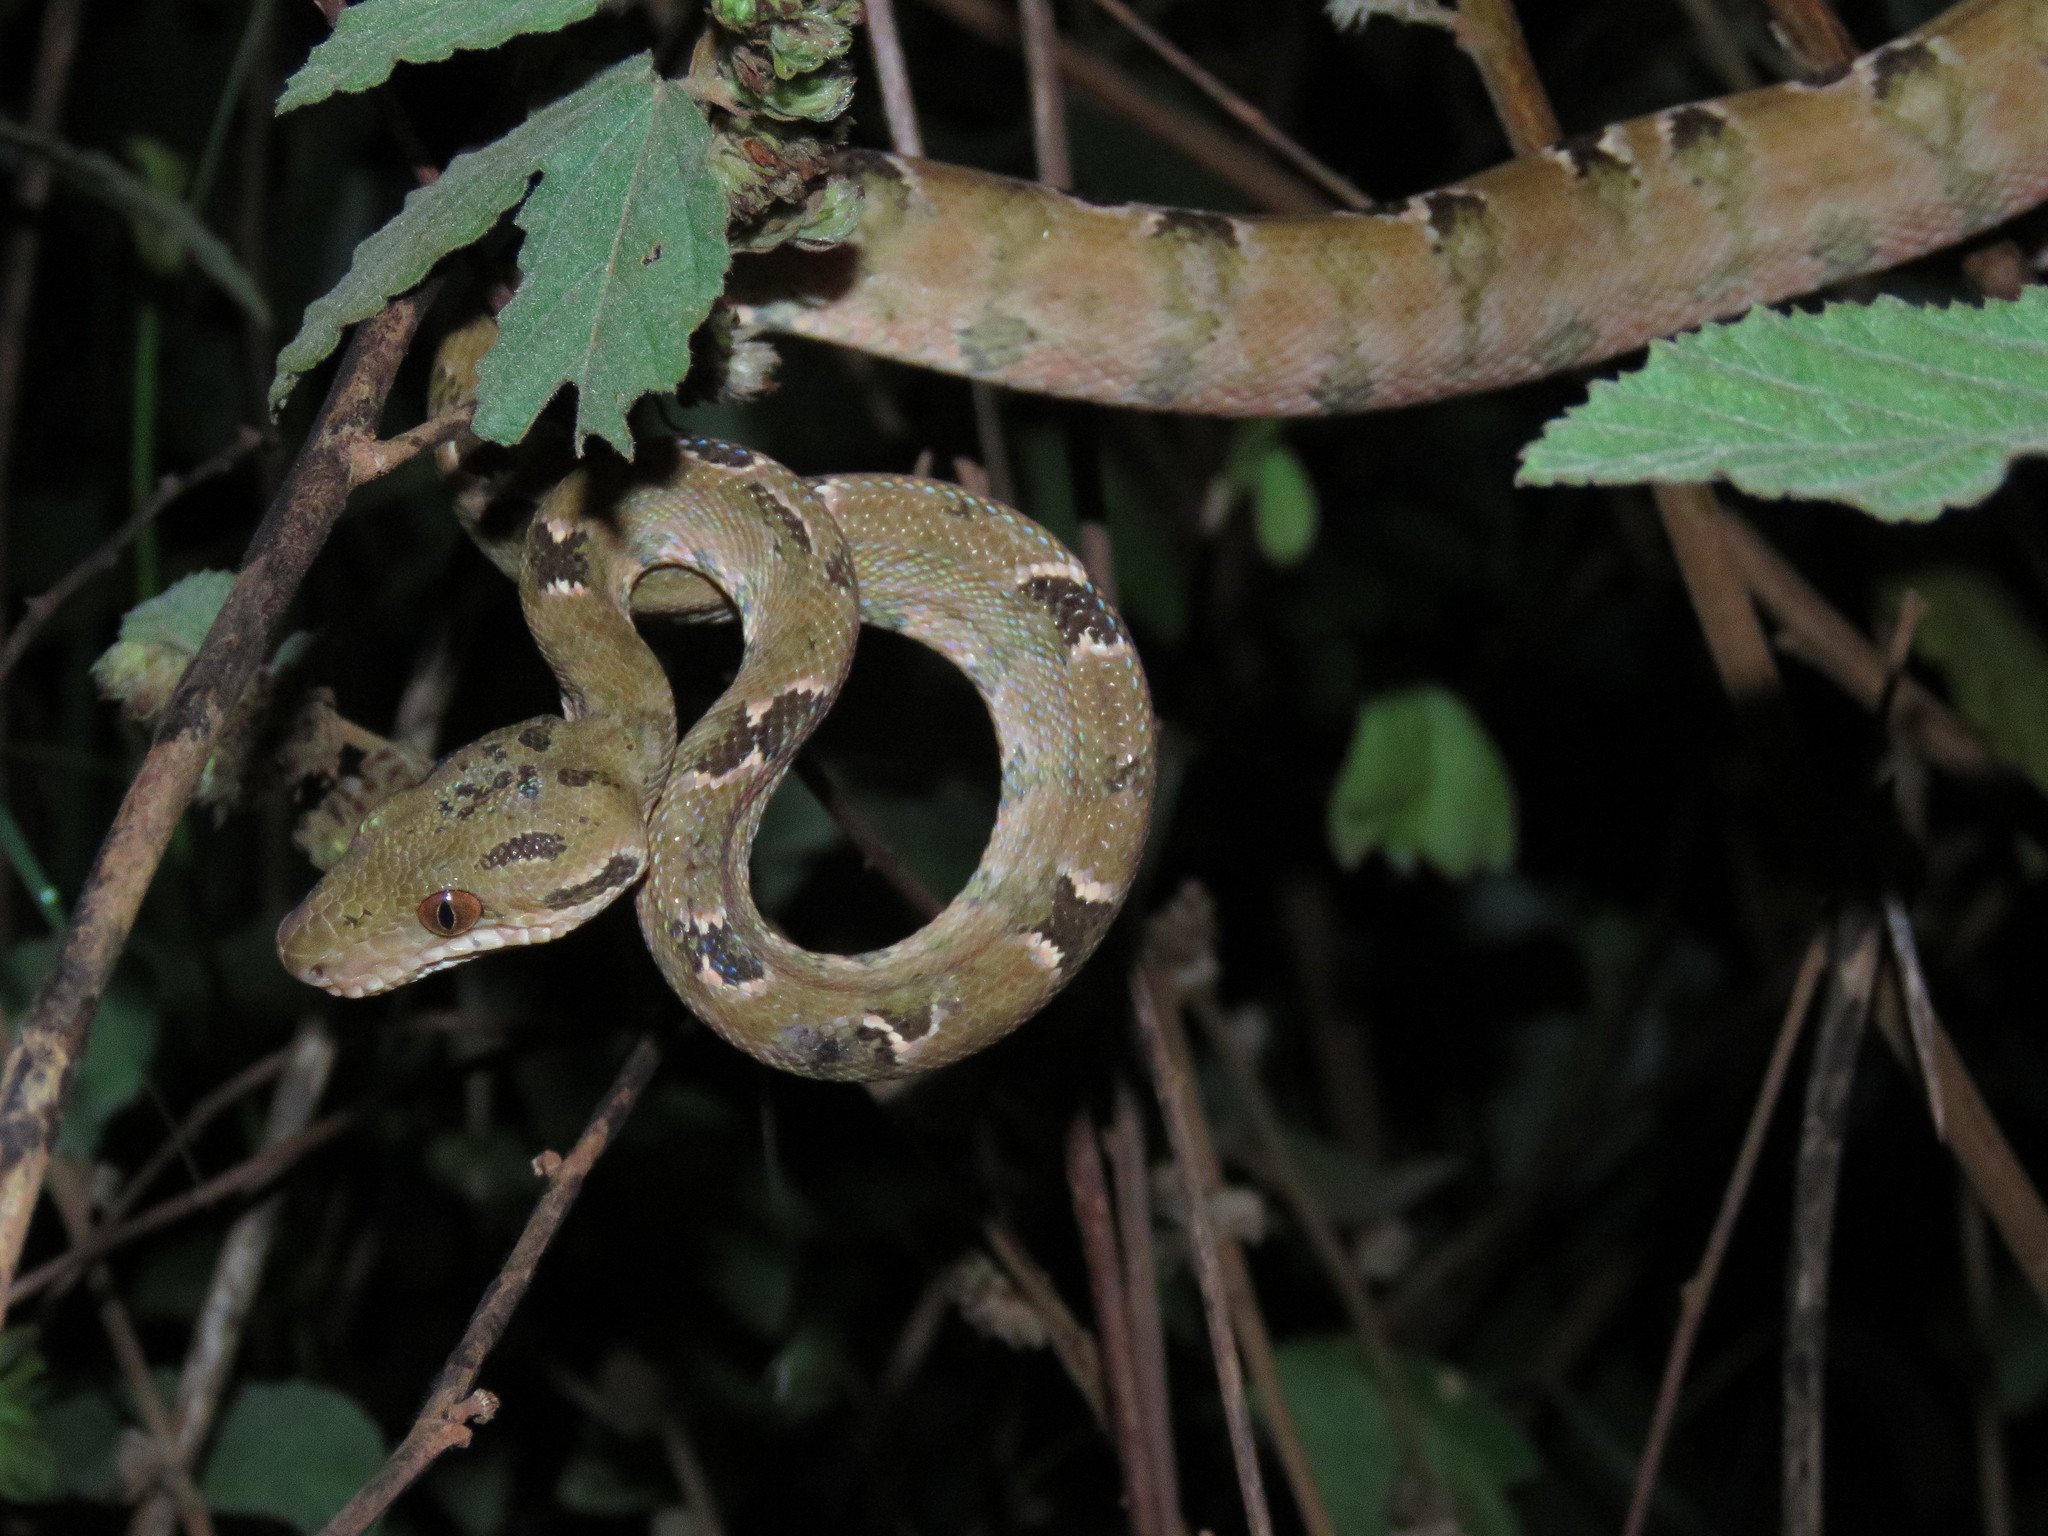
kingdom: Animalia
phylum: Chordata
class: Squamata
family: Boidae
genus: Corallus
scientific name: Corallus hortulana
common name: Garden tree boa
